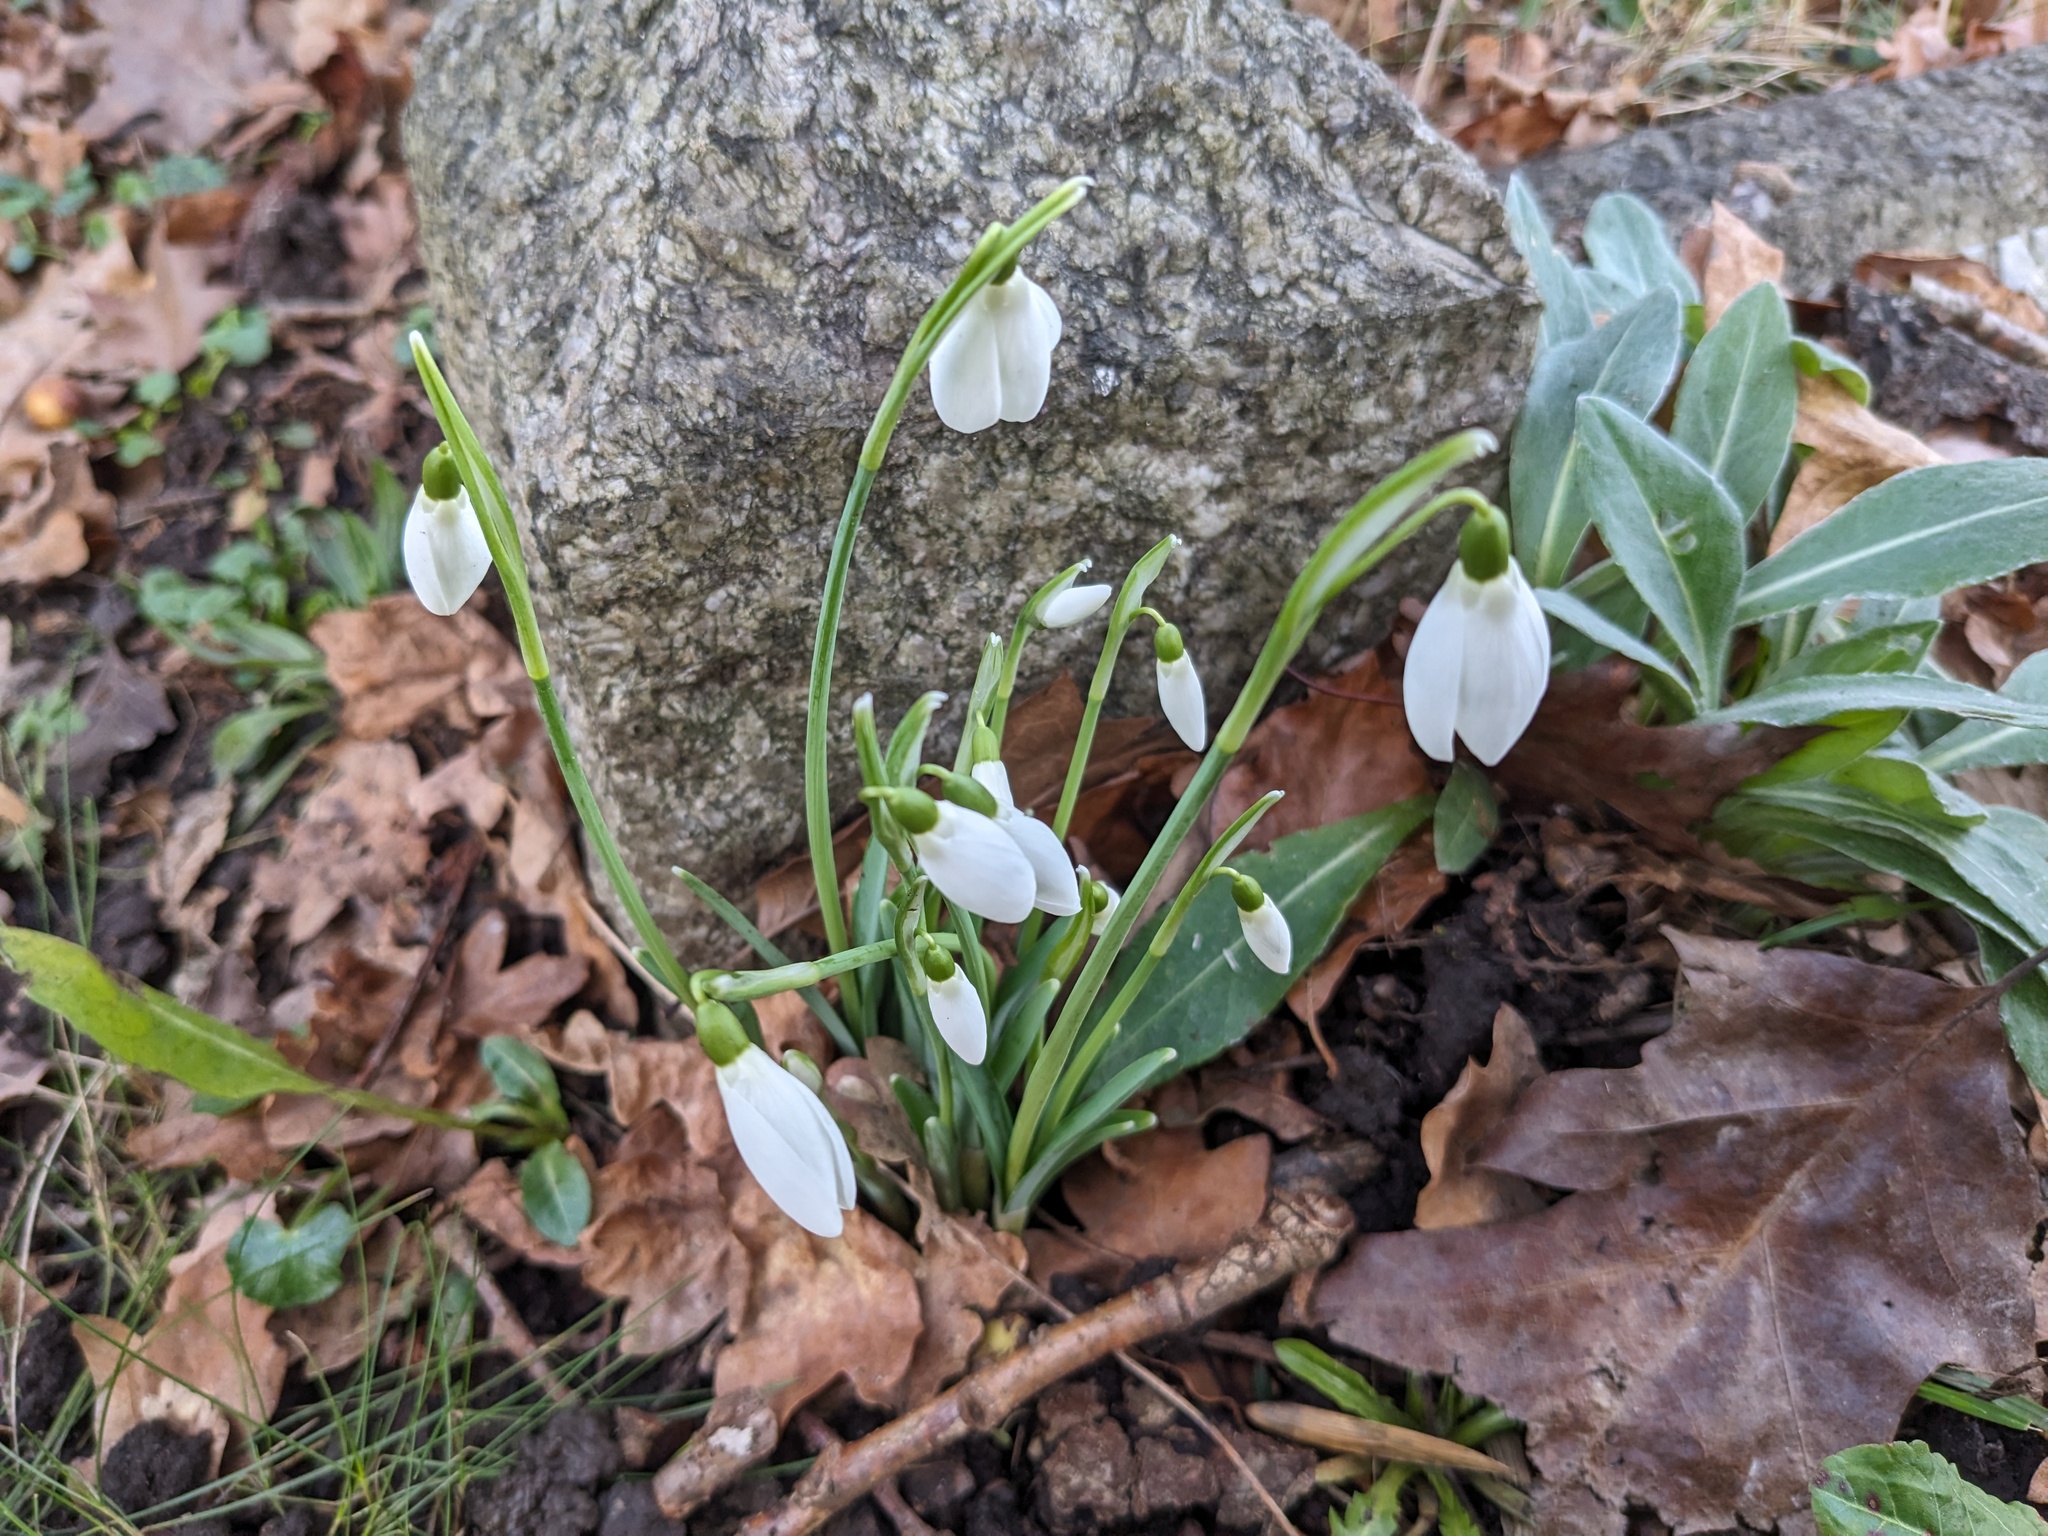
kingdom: Plantae
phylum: Tracheophyta
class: Liliopsida
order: Asparagales
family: Amaryllidaceae
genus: Galanthus
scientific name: Galanthus nivalis
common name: Snowdrop
